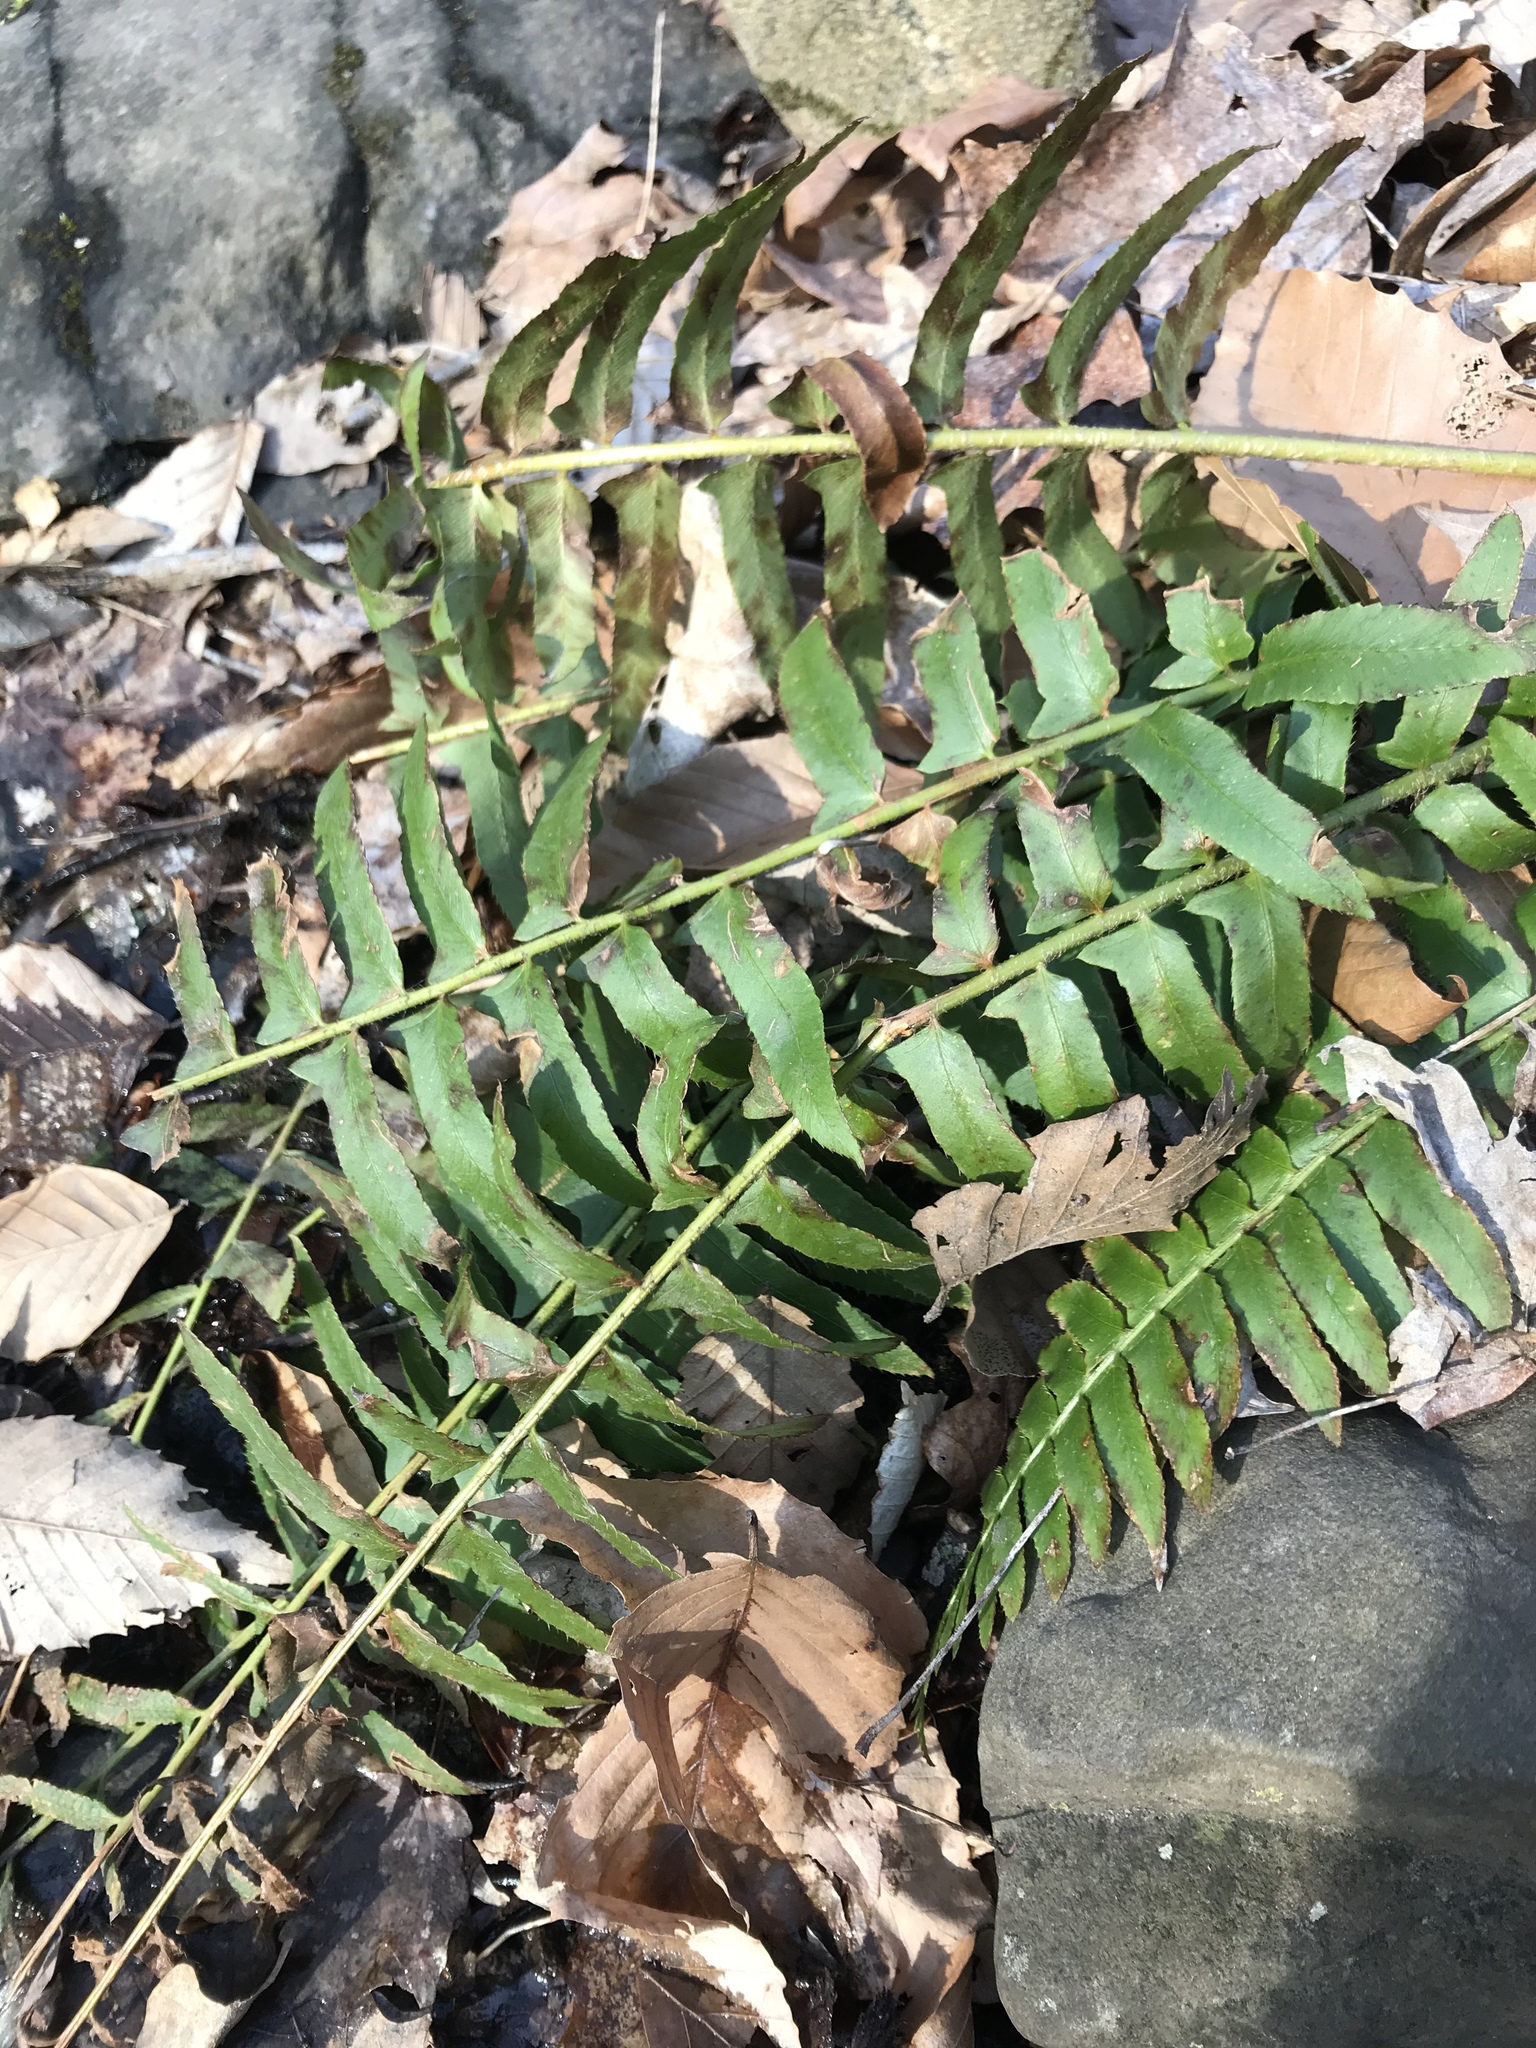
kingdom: Plantae
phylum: Tracheophyta
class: Polypodiopsida
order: Polypodiales
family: Dryopteridaceae
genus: Polystichum
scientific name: Polystichum acrostichoides
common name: Christmas fern
